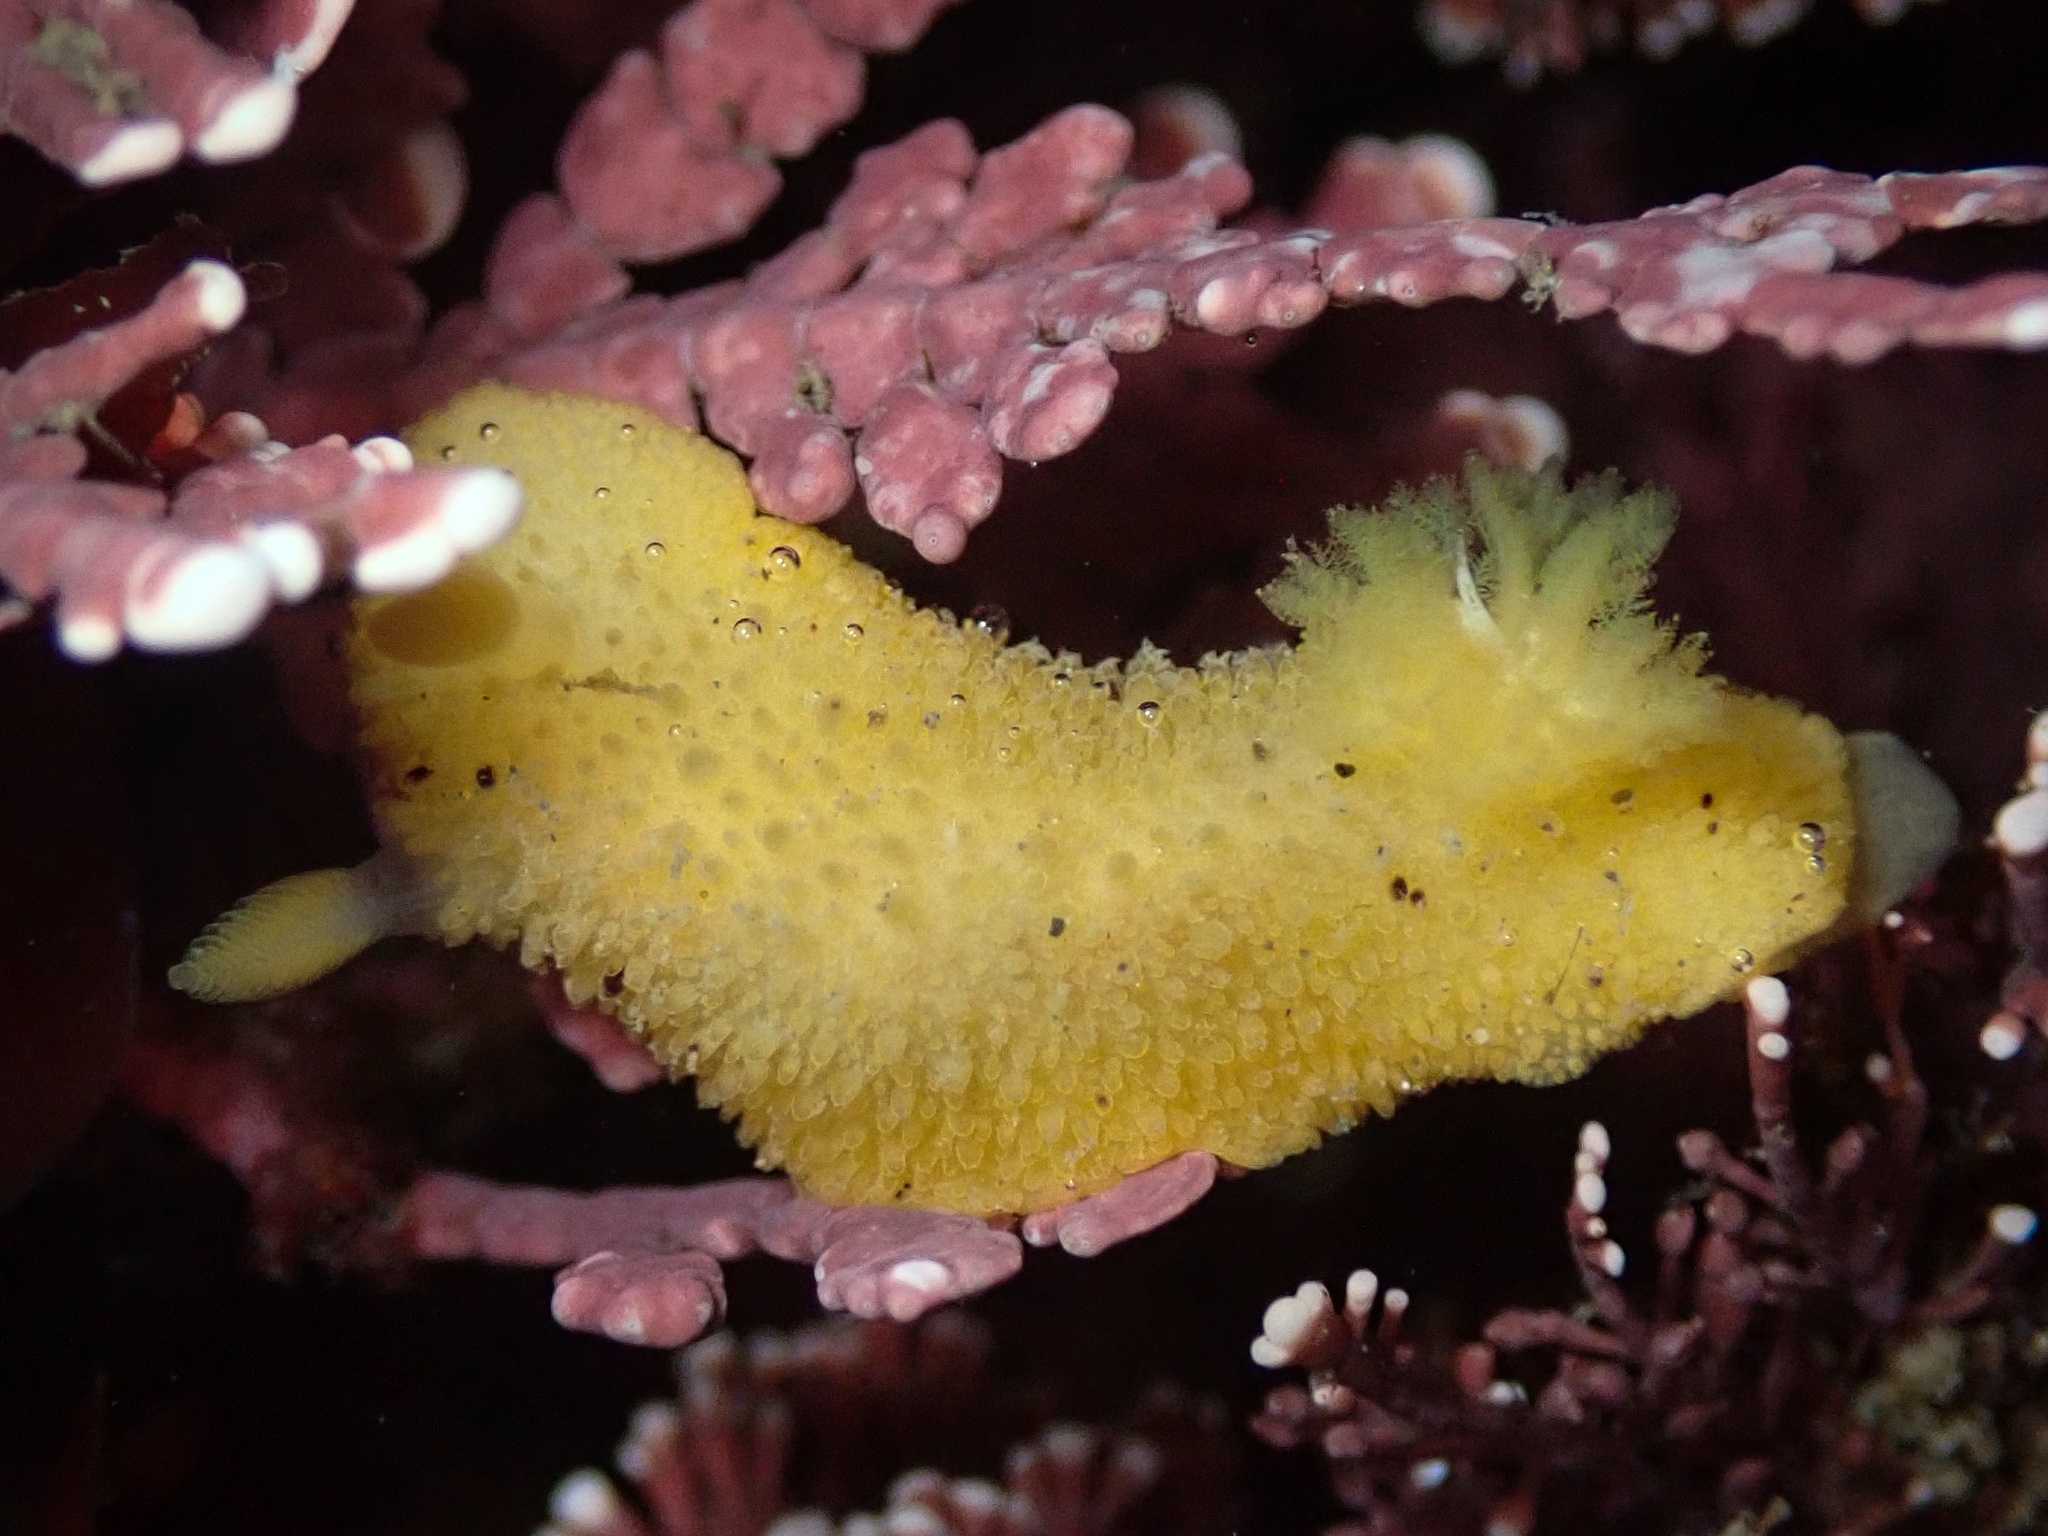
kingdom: Animalia
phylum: Mollusca
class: Gastropoda
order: Nudibranchia
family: Dorididae
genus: Doris
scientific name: Doris montereyensis
